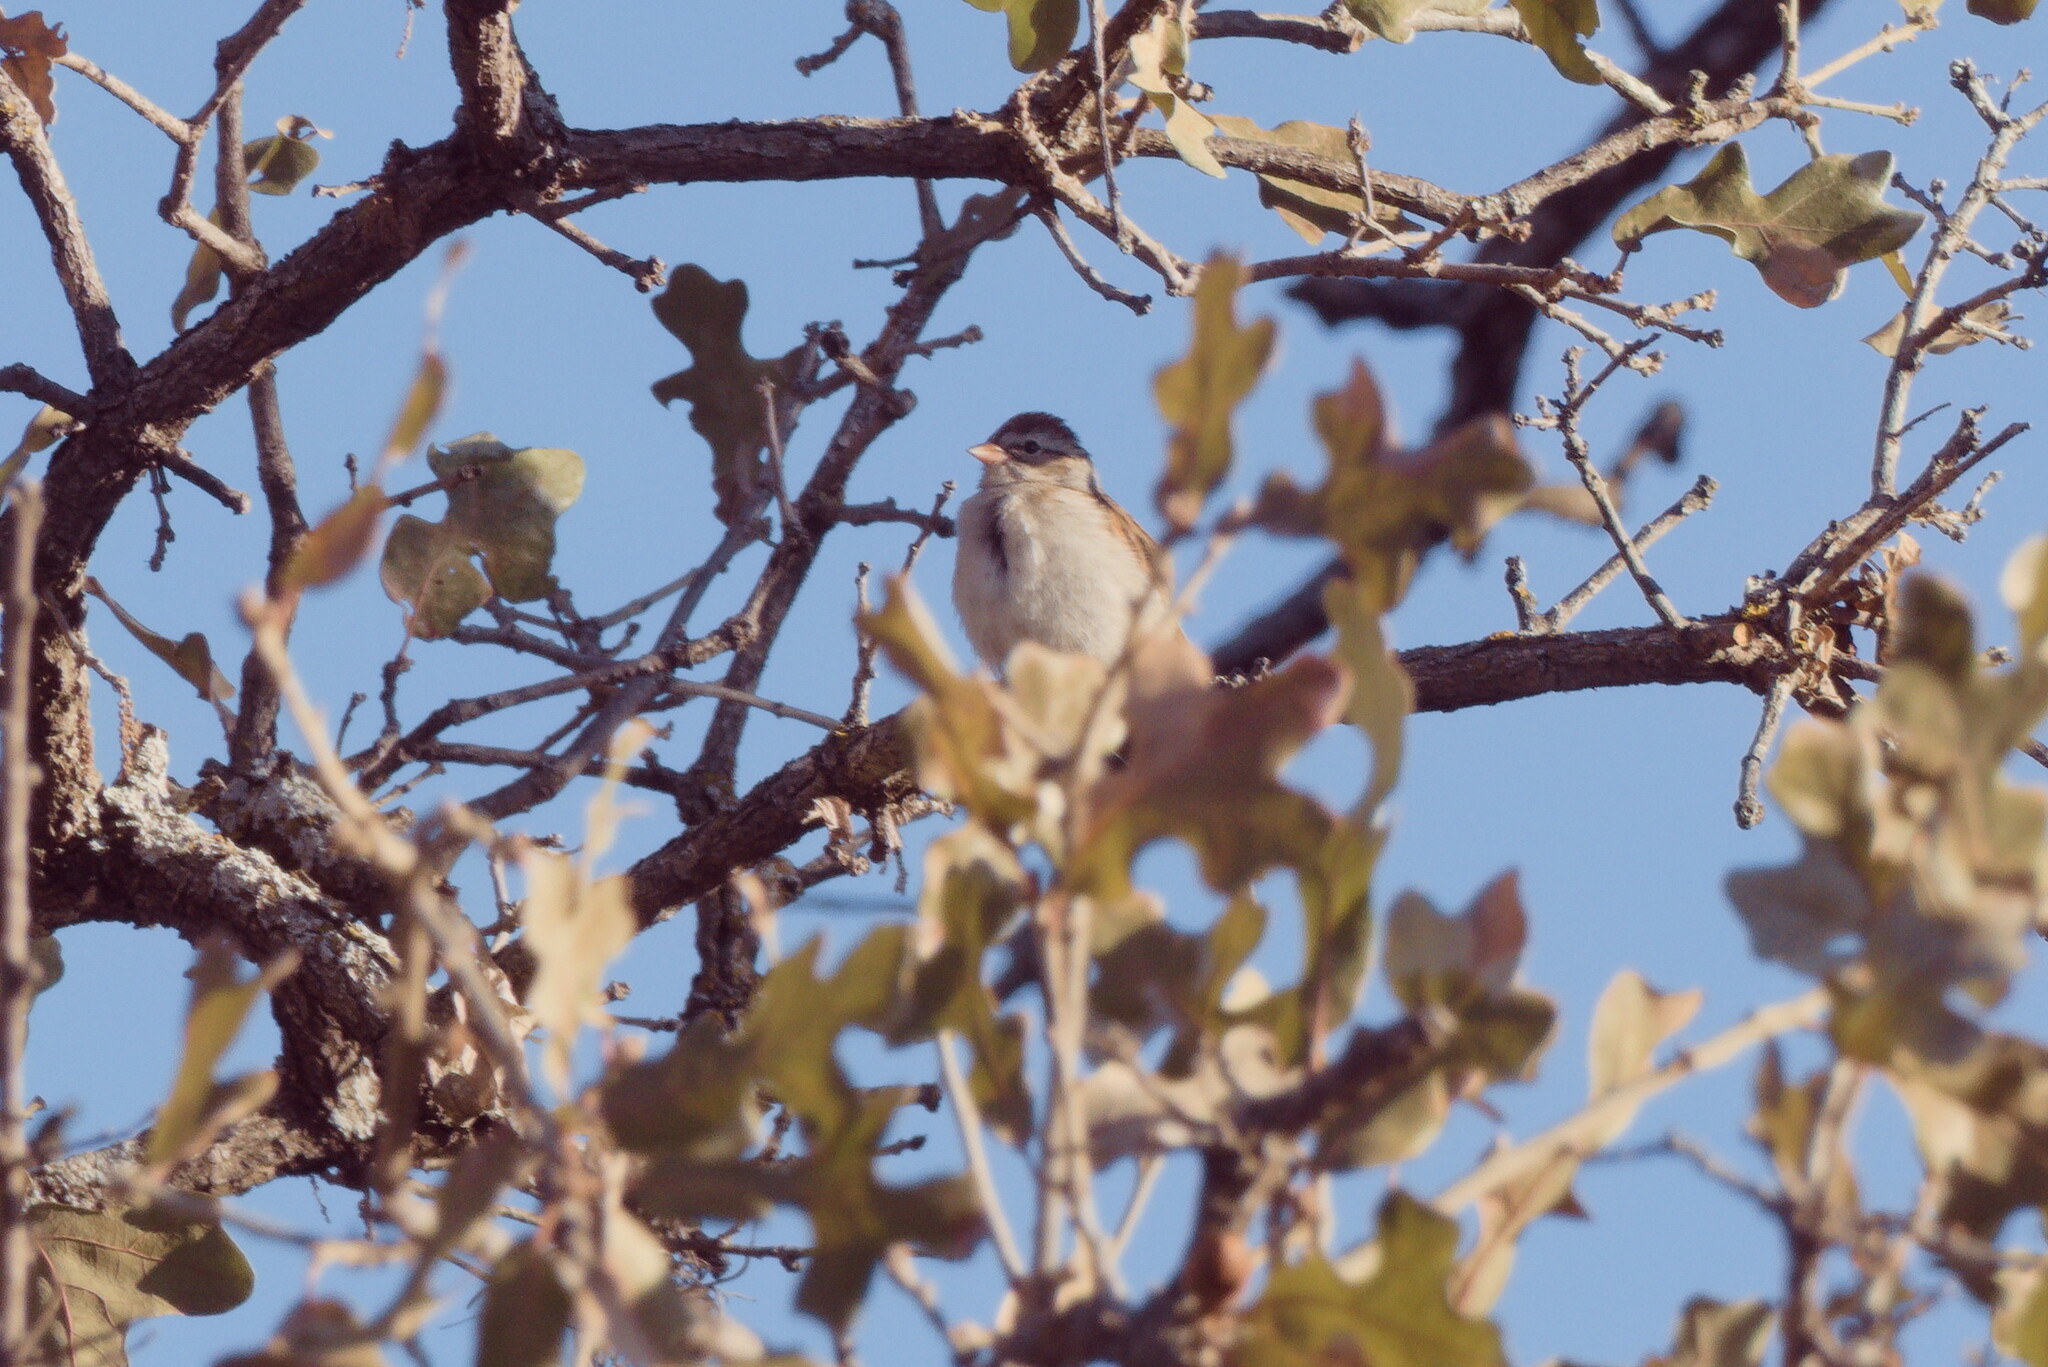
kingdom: Animalia
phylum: Chordata
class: Aves
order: Passeriformes
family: Passerellidae
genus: Spizella
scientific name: Spizella passerina
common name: Chipping sparrow
